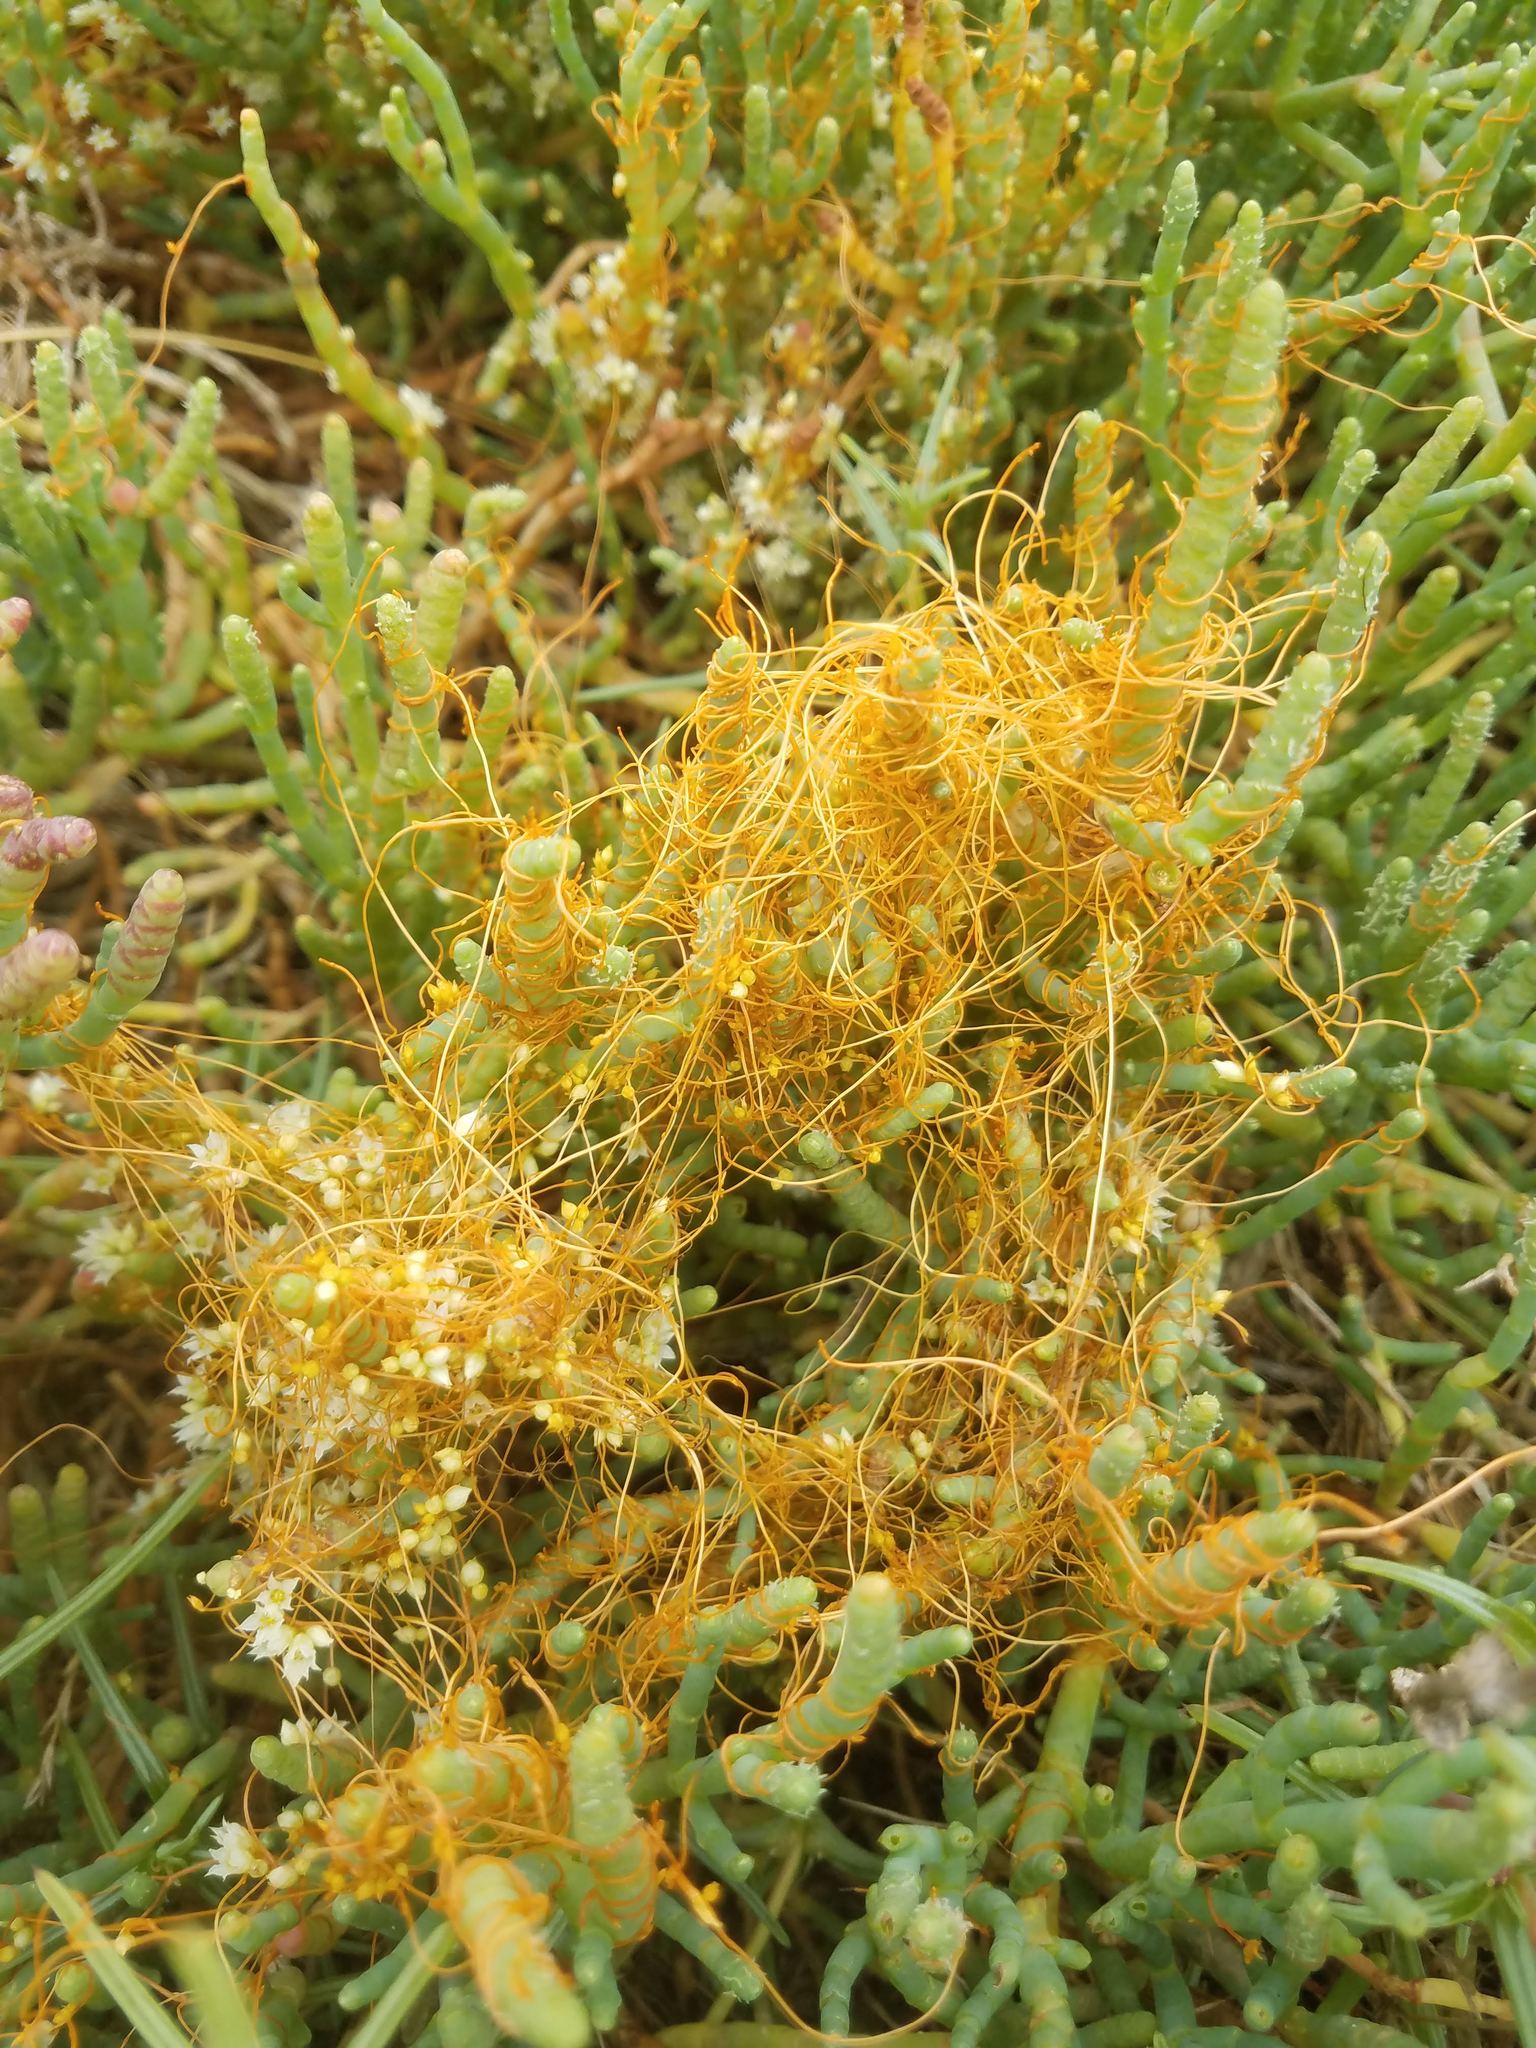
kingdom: Plantae
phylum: Tracheophyta
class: Magnoliopsida
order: Solanales
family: Convolvulaceae
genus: Cuscuta
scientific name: Cuscuta pacifica
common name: Large saltmarsh dodder
